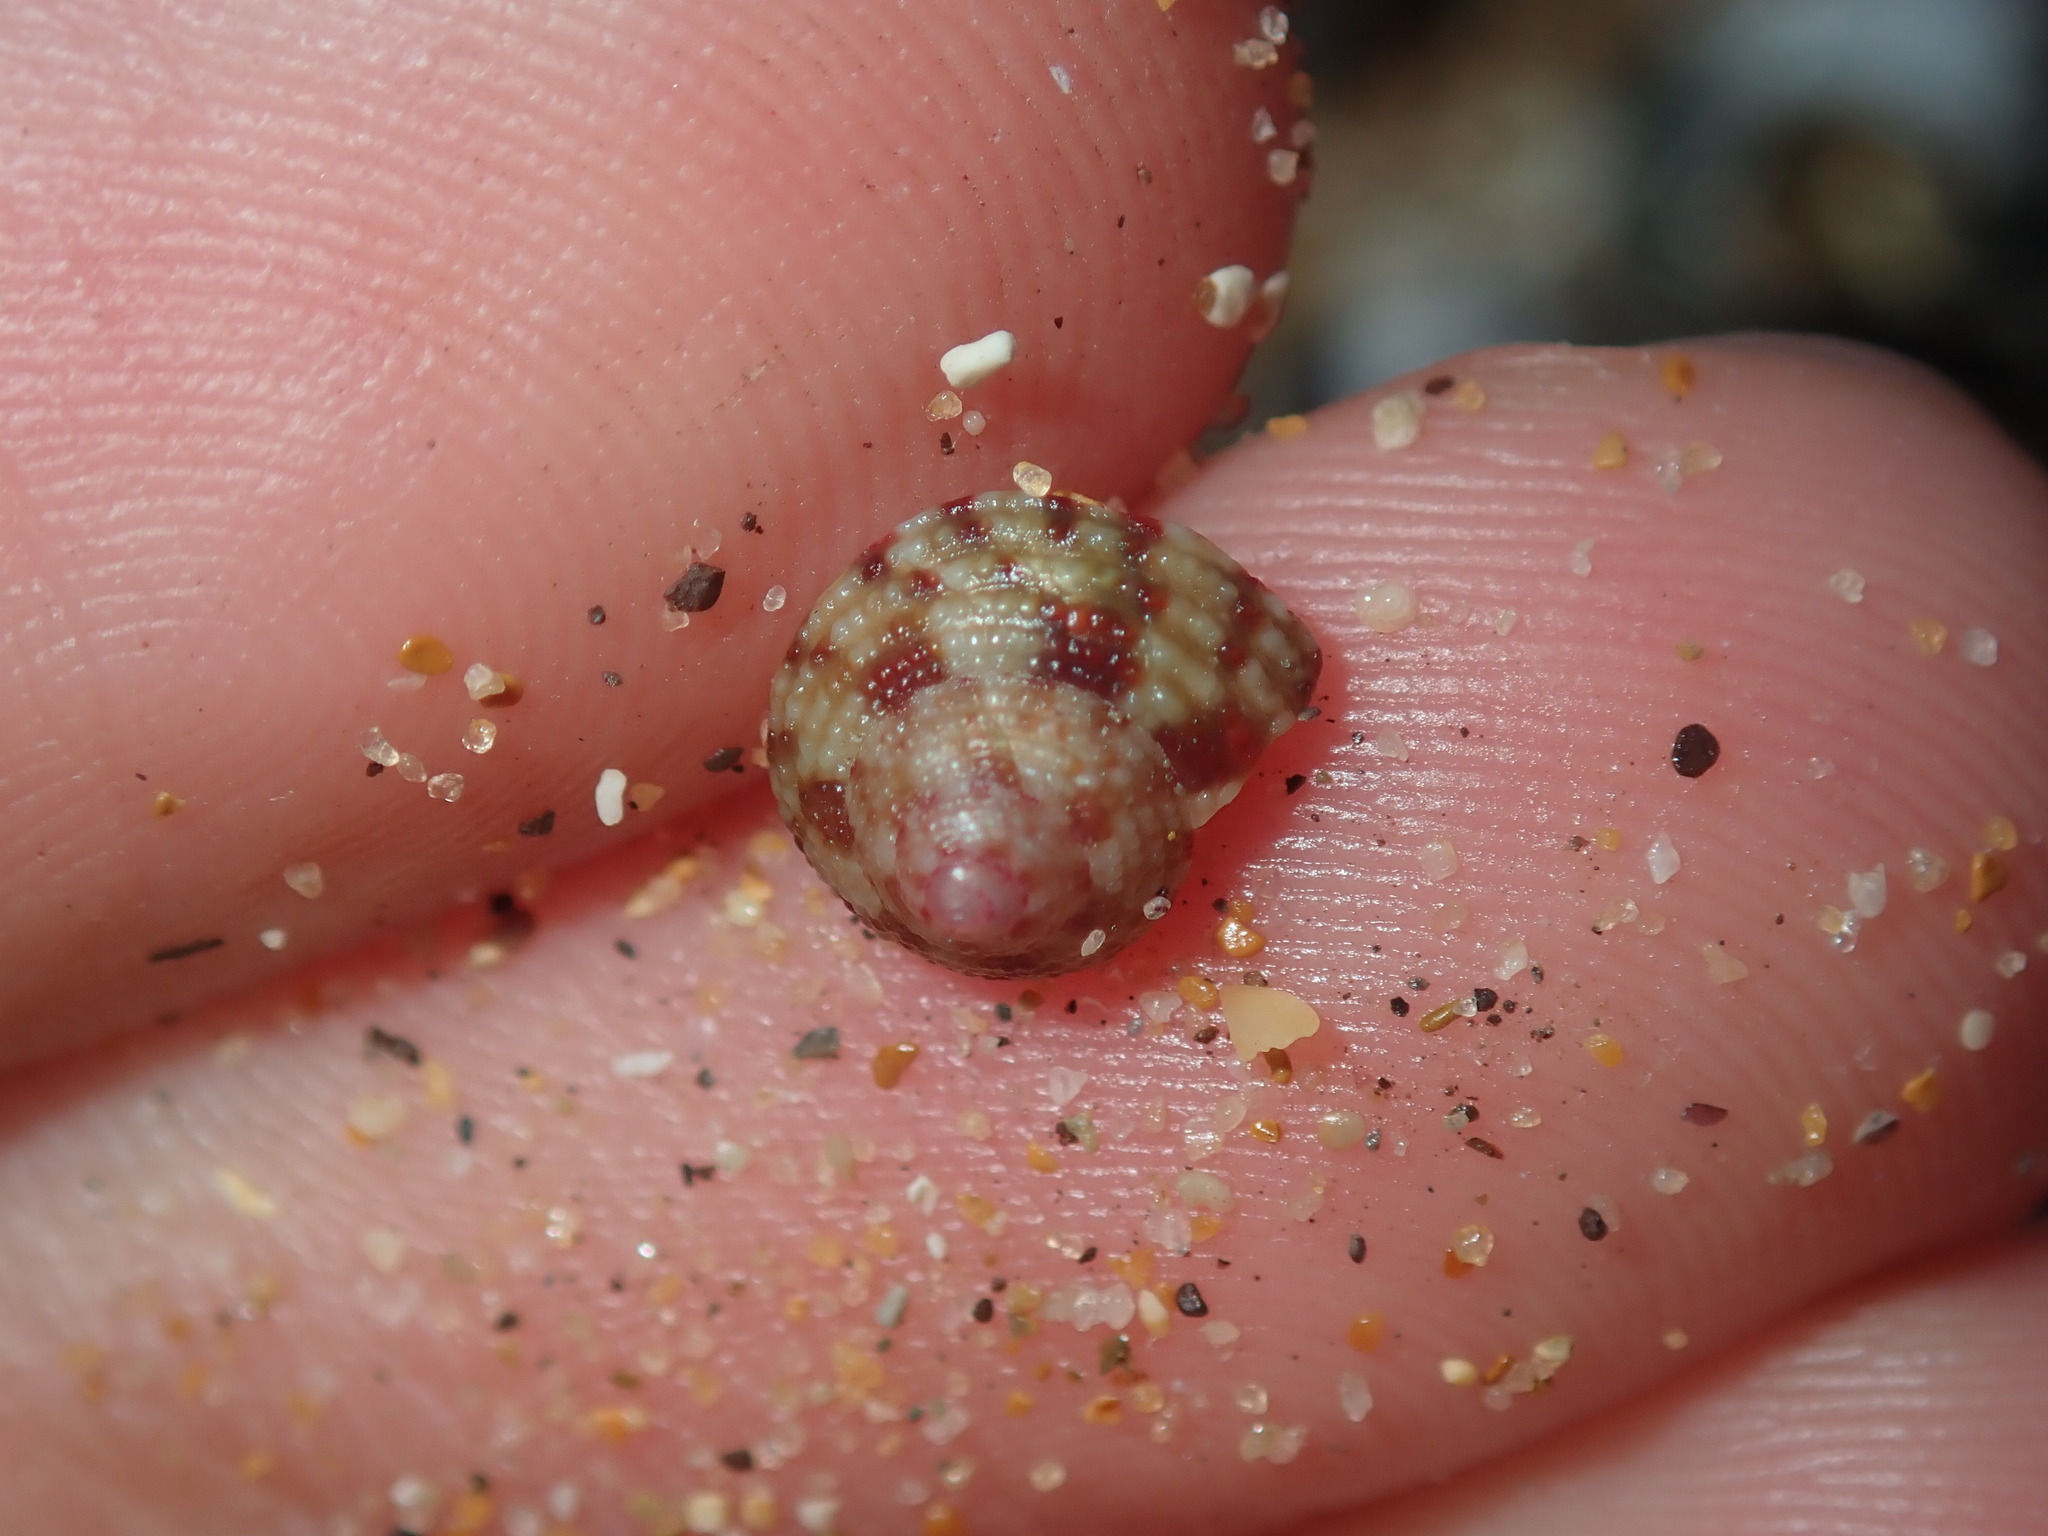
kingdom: Animalia
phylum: Mollusca
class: Gastropoda
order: Trochida
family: Trochidae
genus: Clanculus
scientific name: Clanculus clangulus
